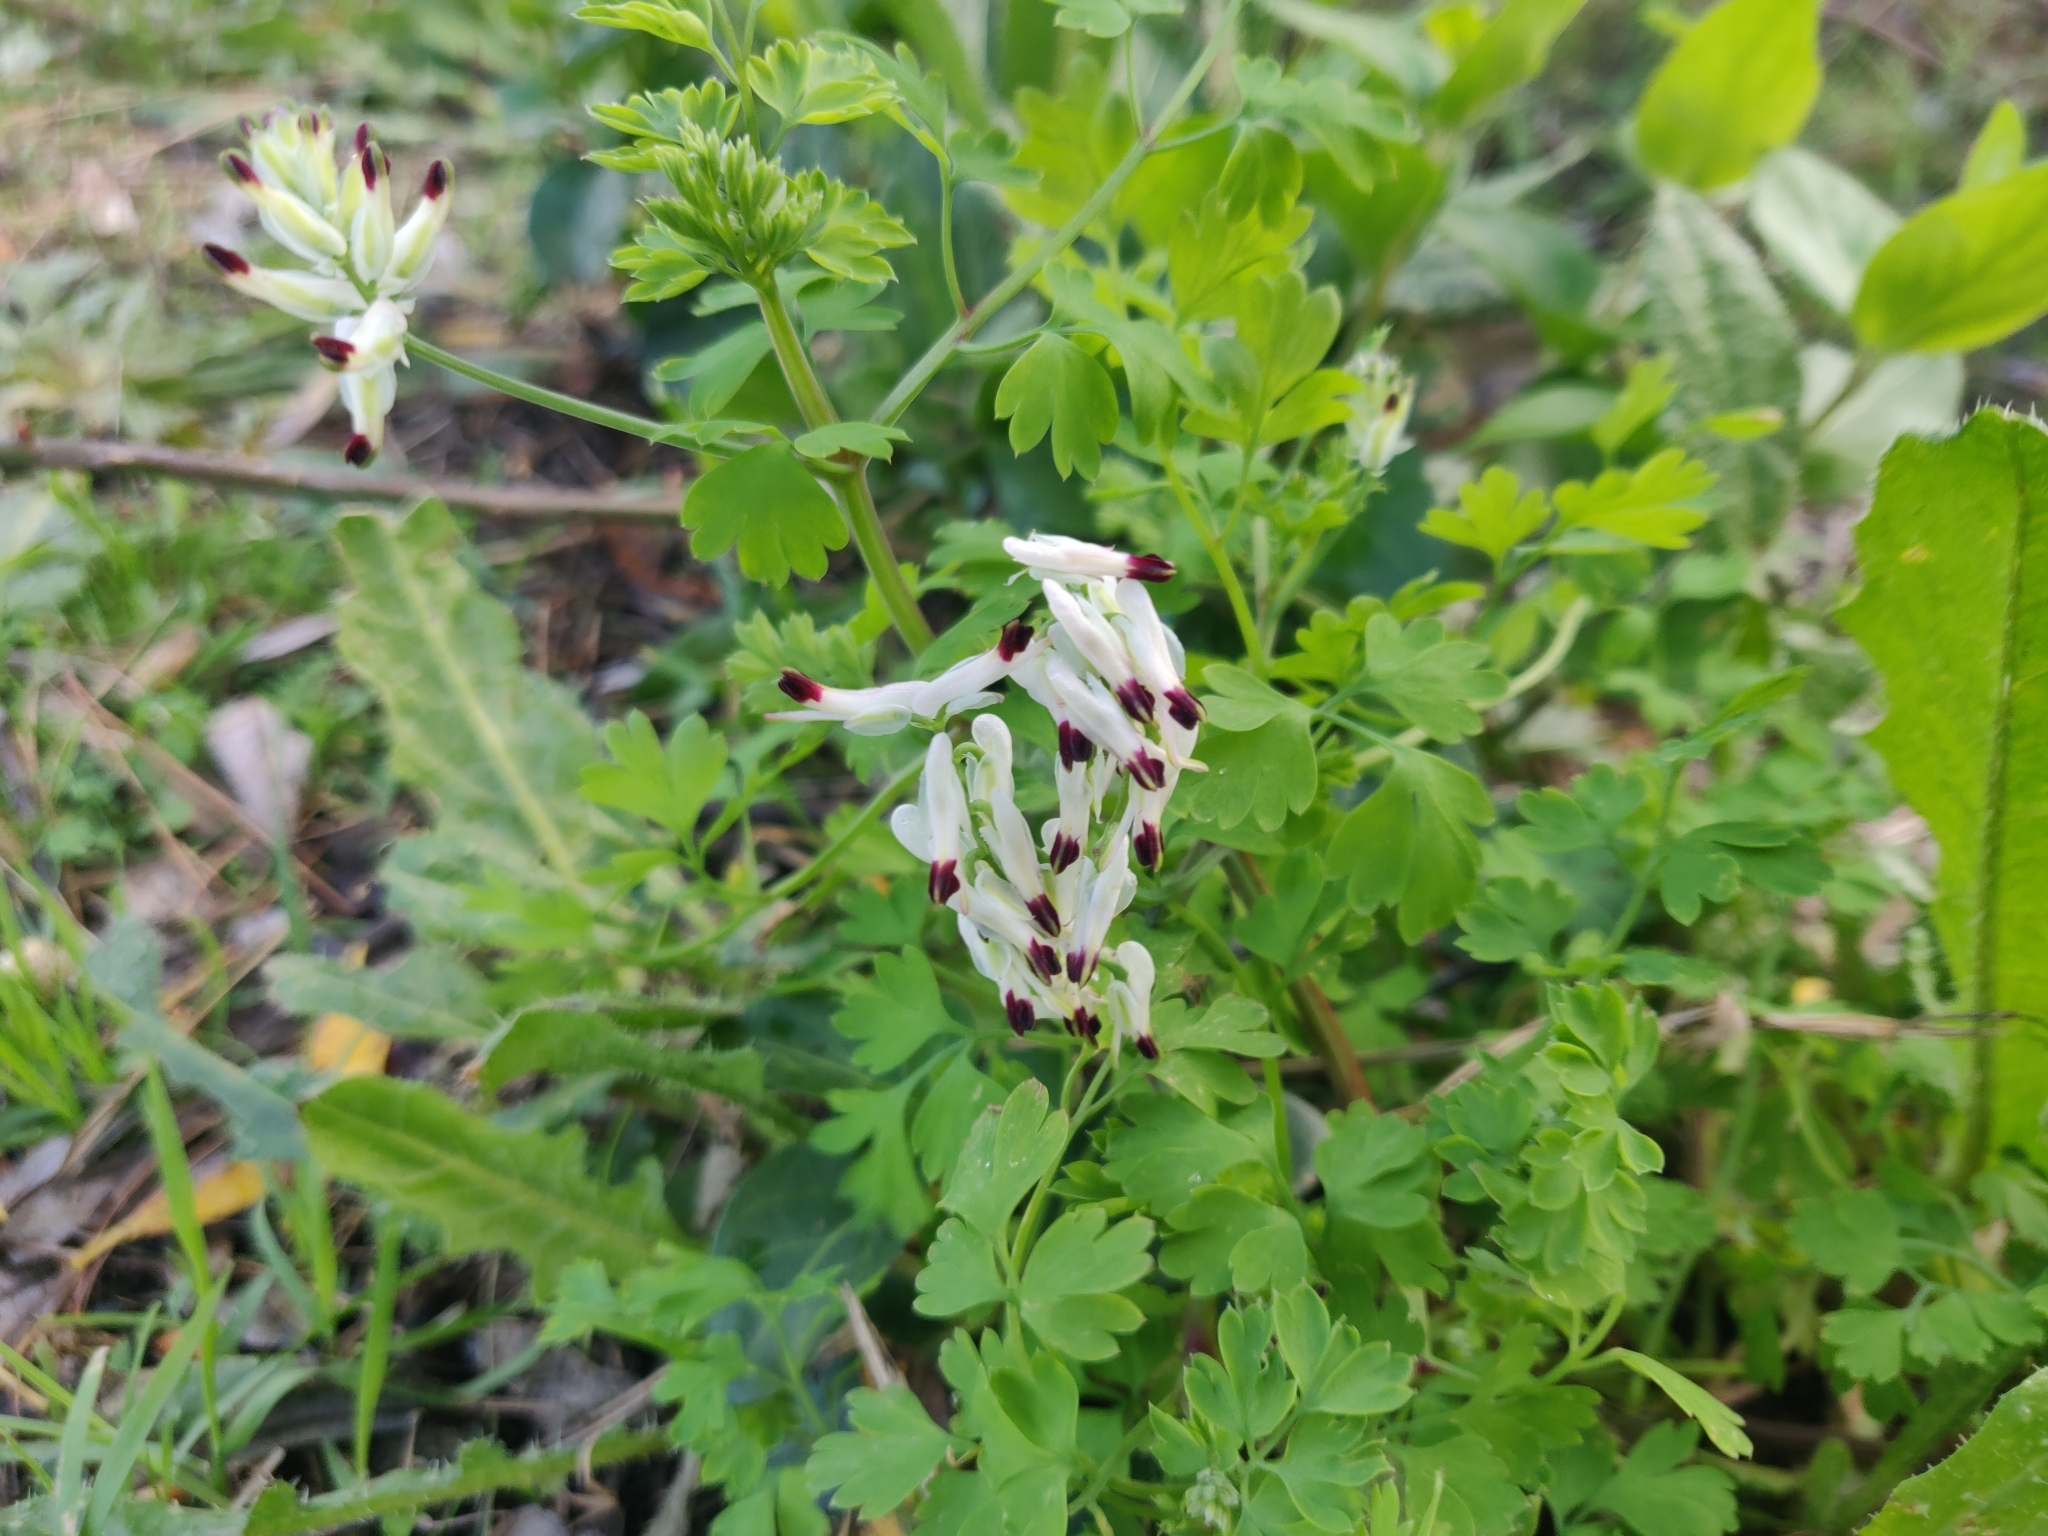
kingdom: Plantae
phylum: Tracheophyta
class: Magnoliopsida
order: Ranunculales
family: Papaveraceae
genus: Fumaria
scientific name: Fumaria capreolata
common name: White ramping-fumitory
